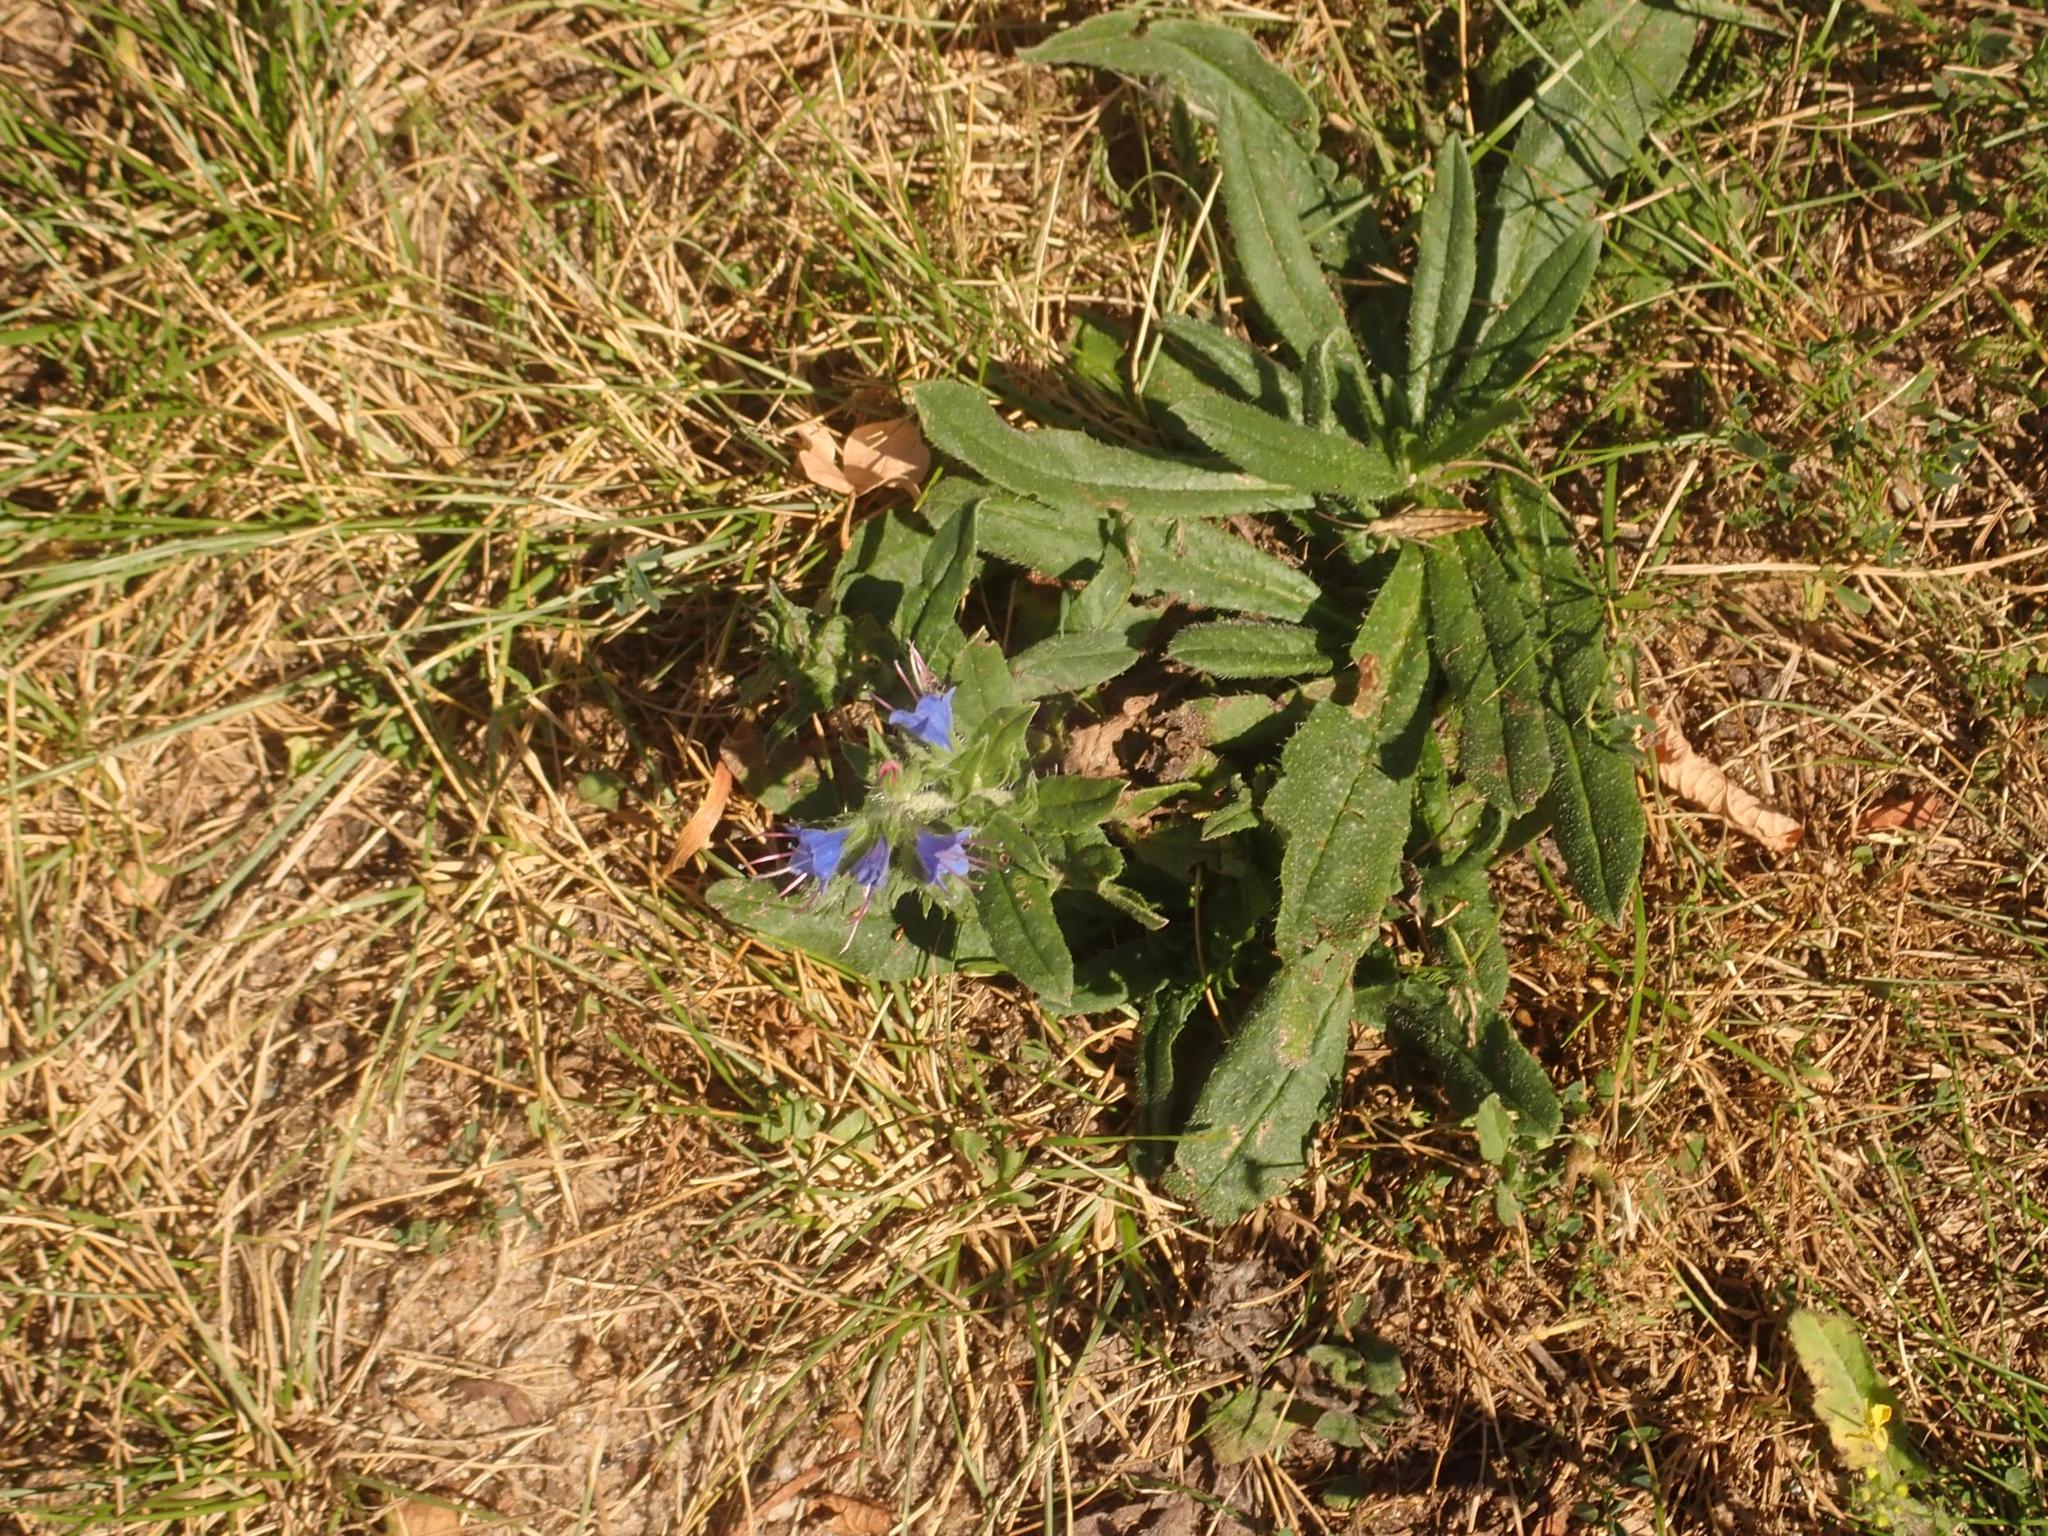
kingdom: Plantae
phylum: Tracheophyta
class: Magnoliopsida
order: Boraginales
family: Boraginaceae
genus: Echium
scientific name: Echium vulgare
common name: Common viper's bugloss
